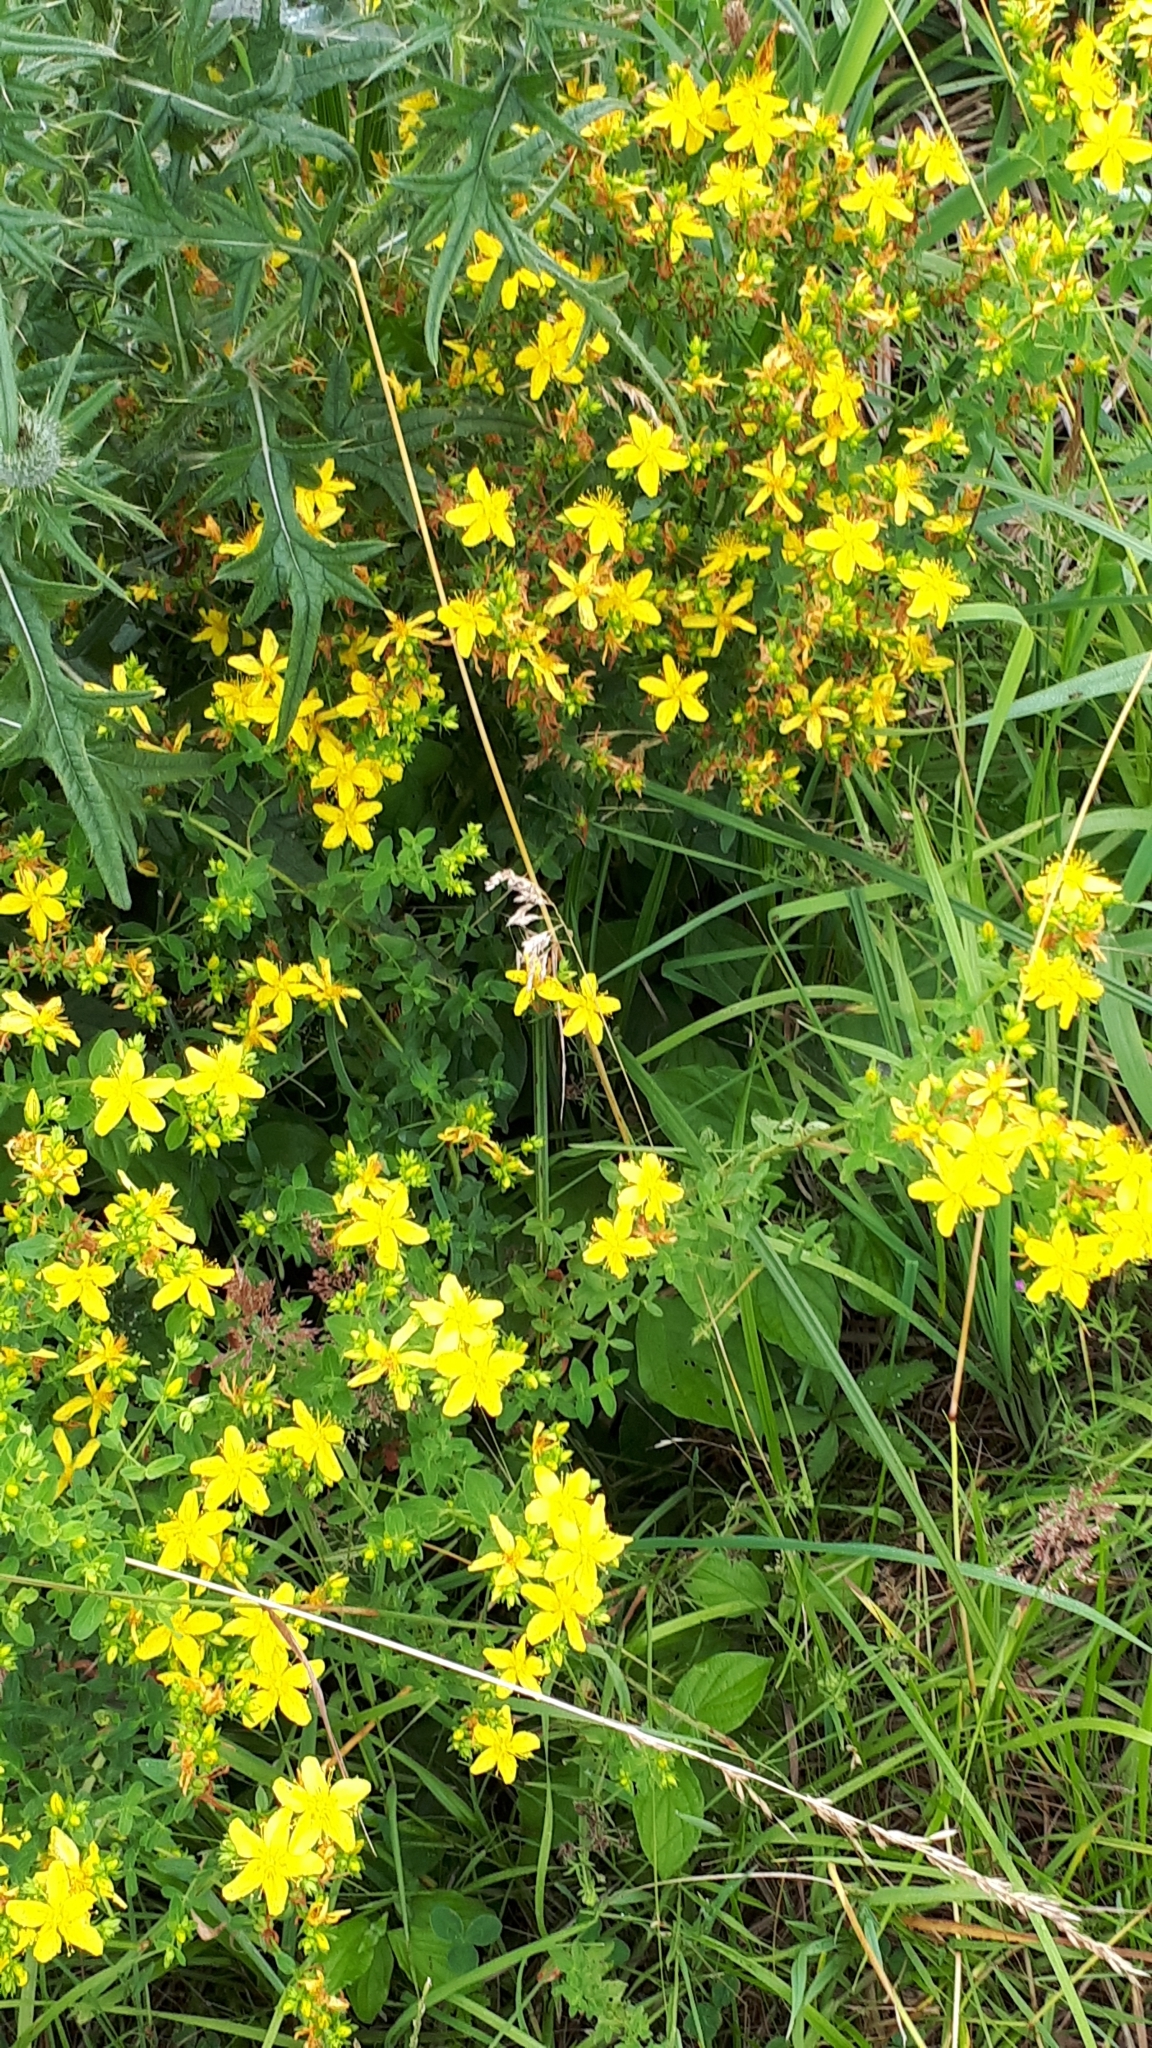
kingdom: Plantae
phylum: Tracheophyta
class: Magnoliopsida
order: Malpighiales
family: Hypericaceae
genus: Hypericum
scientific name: Hypericum perforatum
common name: Common st. johnswort
